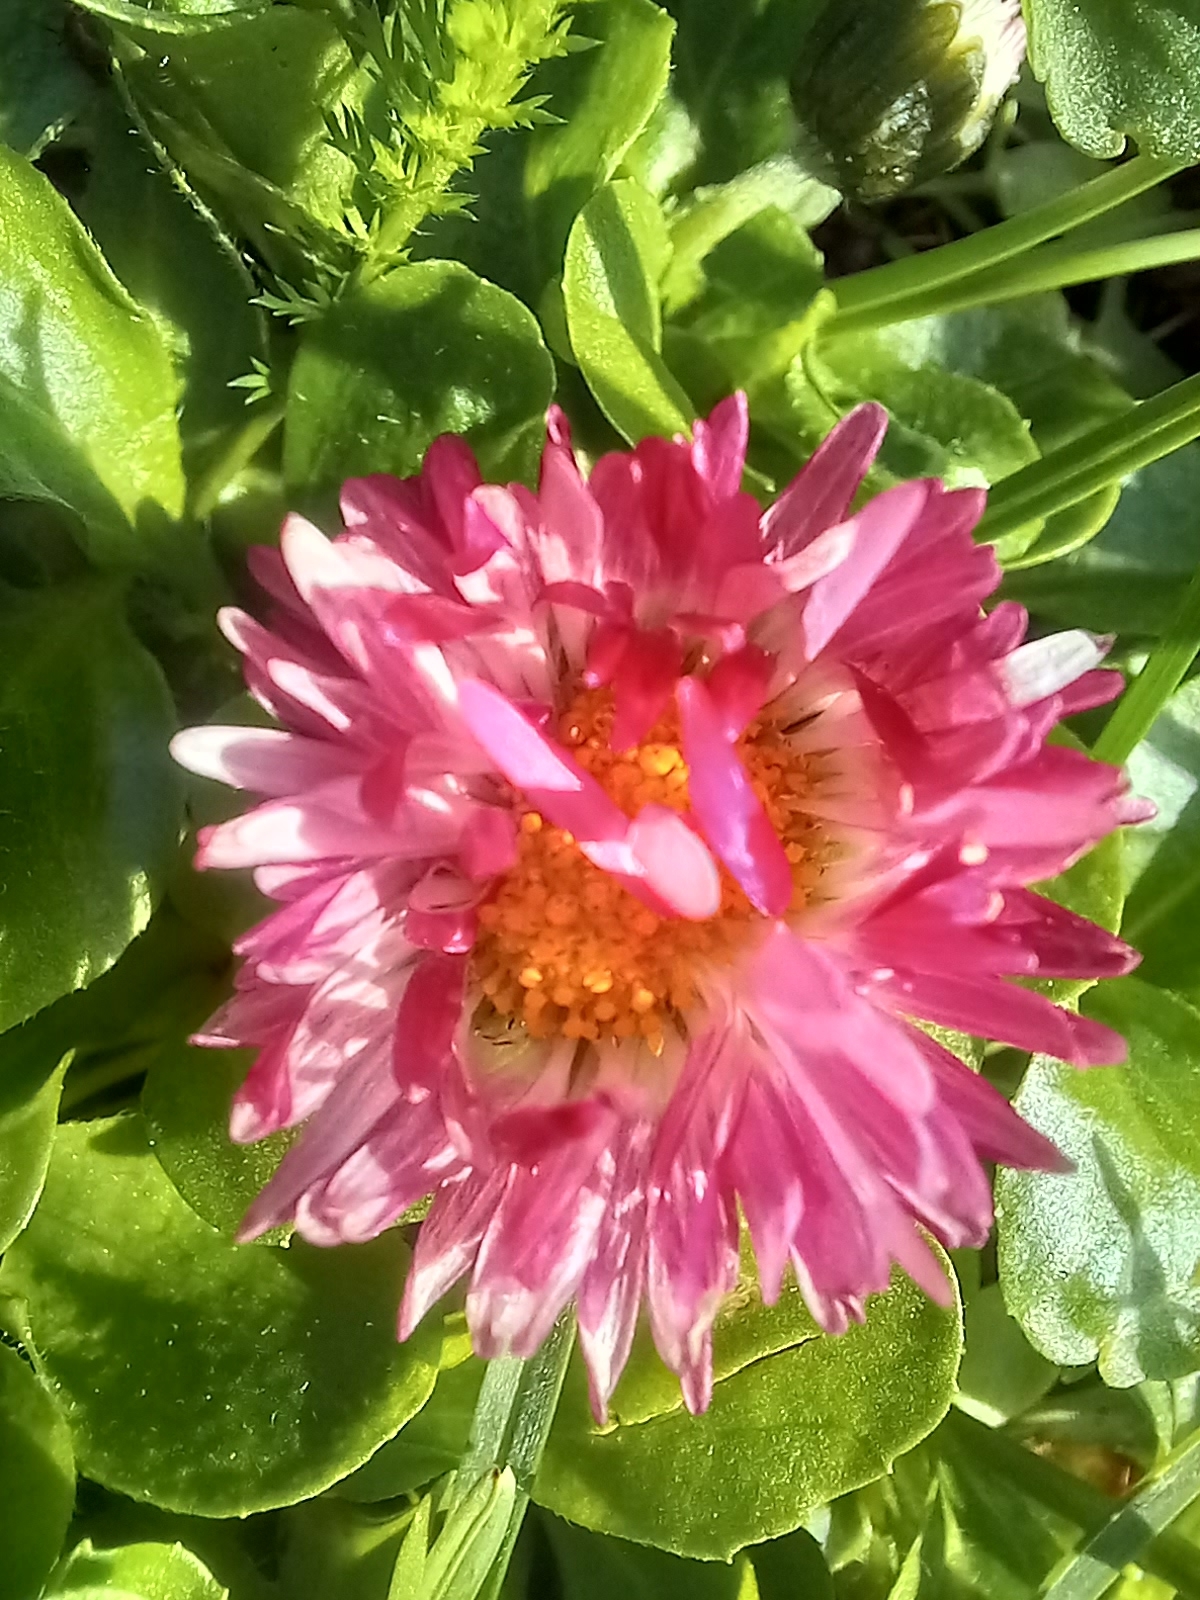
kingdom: Plantae
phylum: Tracheophyta
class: Magnoliopsida
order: Asterales
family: Asteraceae
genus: Bellis
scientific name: Bellis perennis
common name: Lawndaisy
